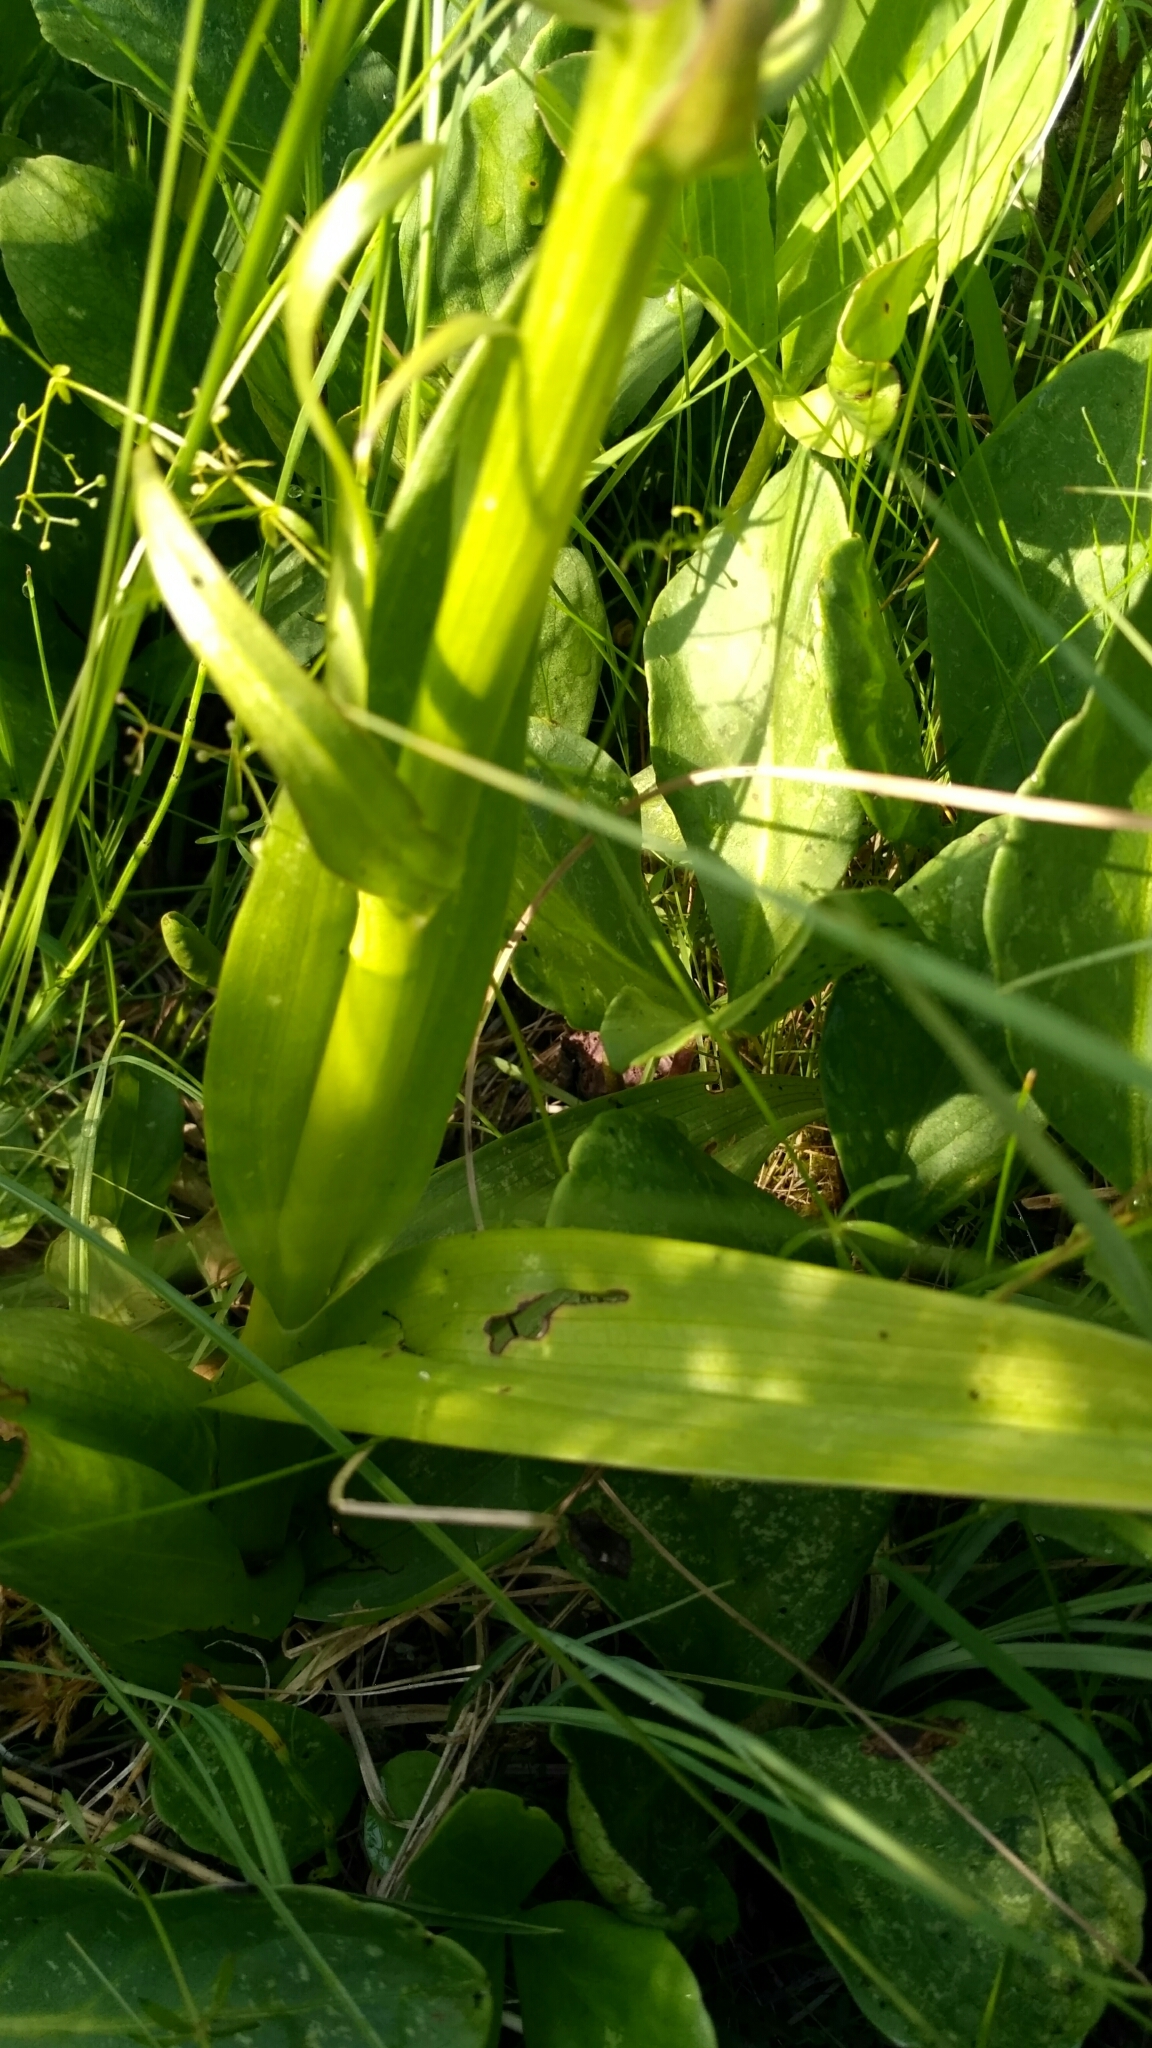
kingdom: Plantae
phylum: Tracheophyta
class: Liliopsida
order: Asparagales
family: Orchidaceae
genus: Dactylorhiza
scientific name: Dactylorhiza incarnata
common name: Early marsh-orchid
